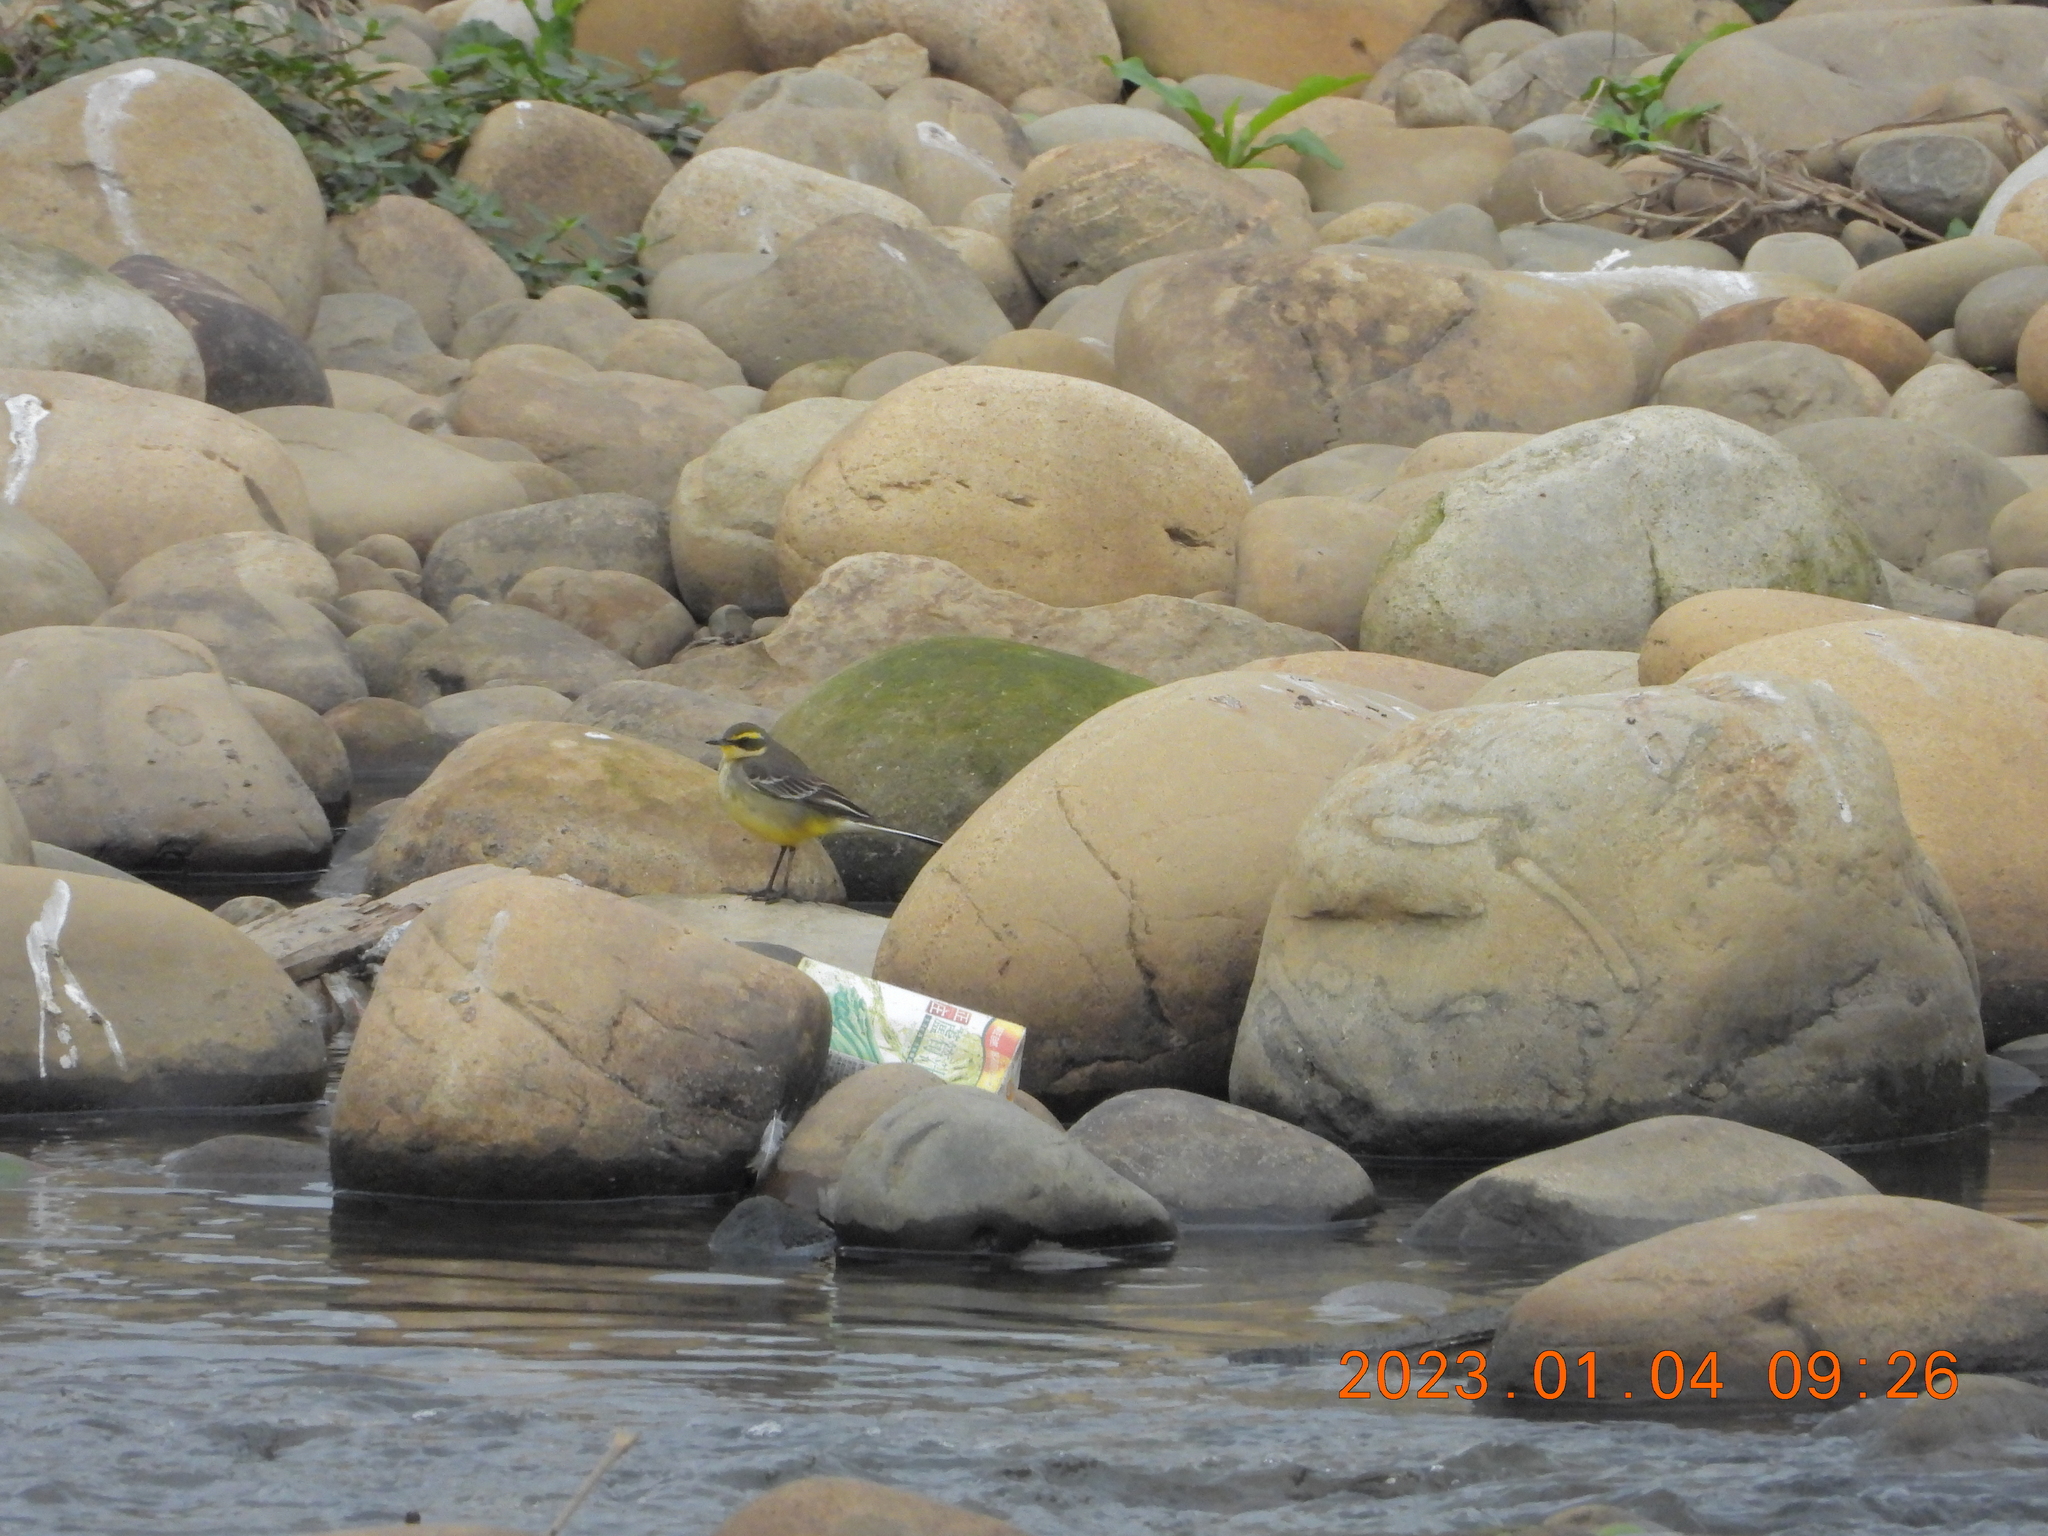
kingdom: Animalia
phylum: Chordata
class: Aves
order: Passeriformes
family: Motacillidae
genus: Motacilla
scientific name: Motacilla tschutschensis
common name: Eastern yellow wagtail
